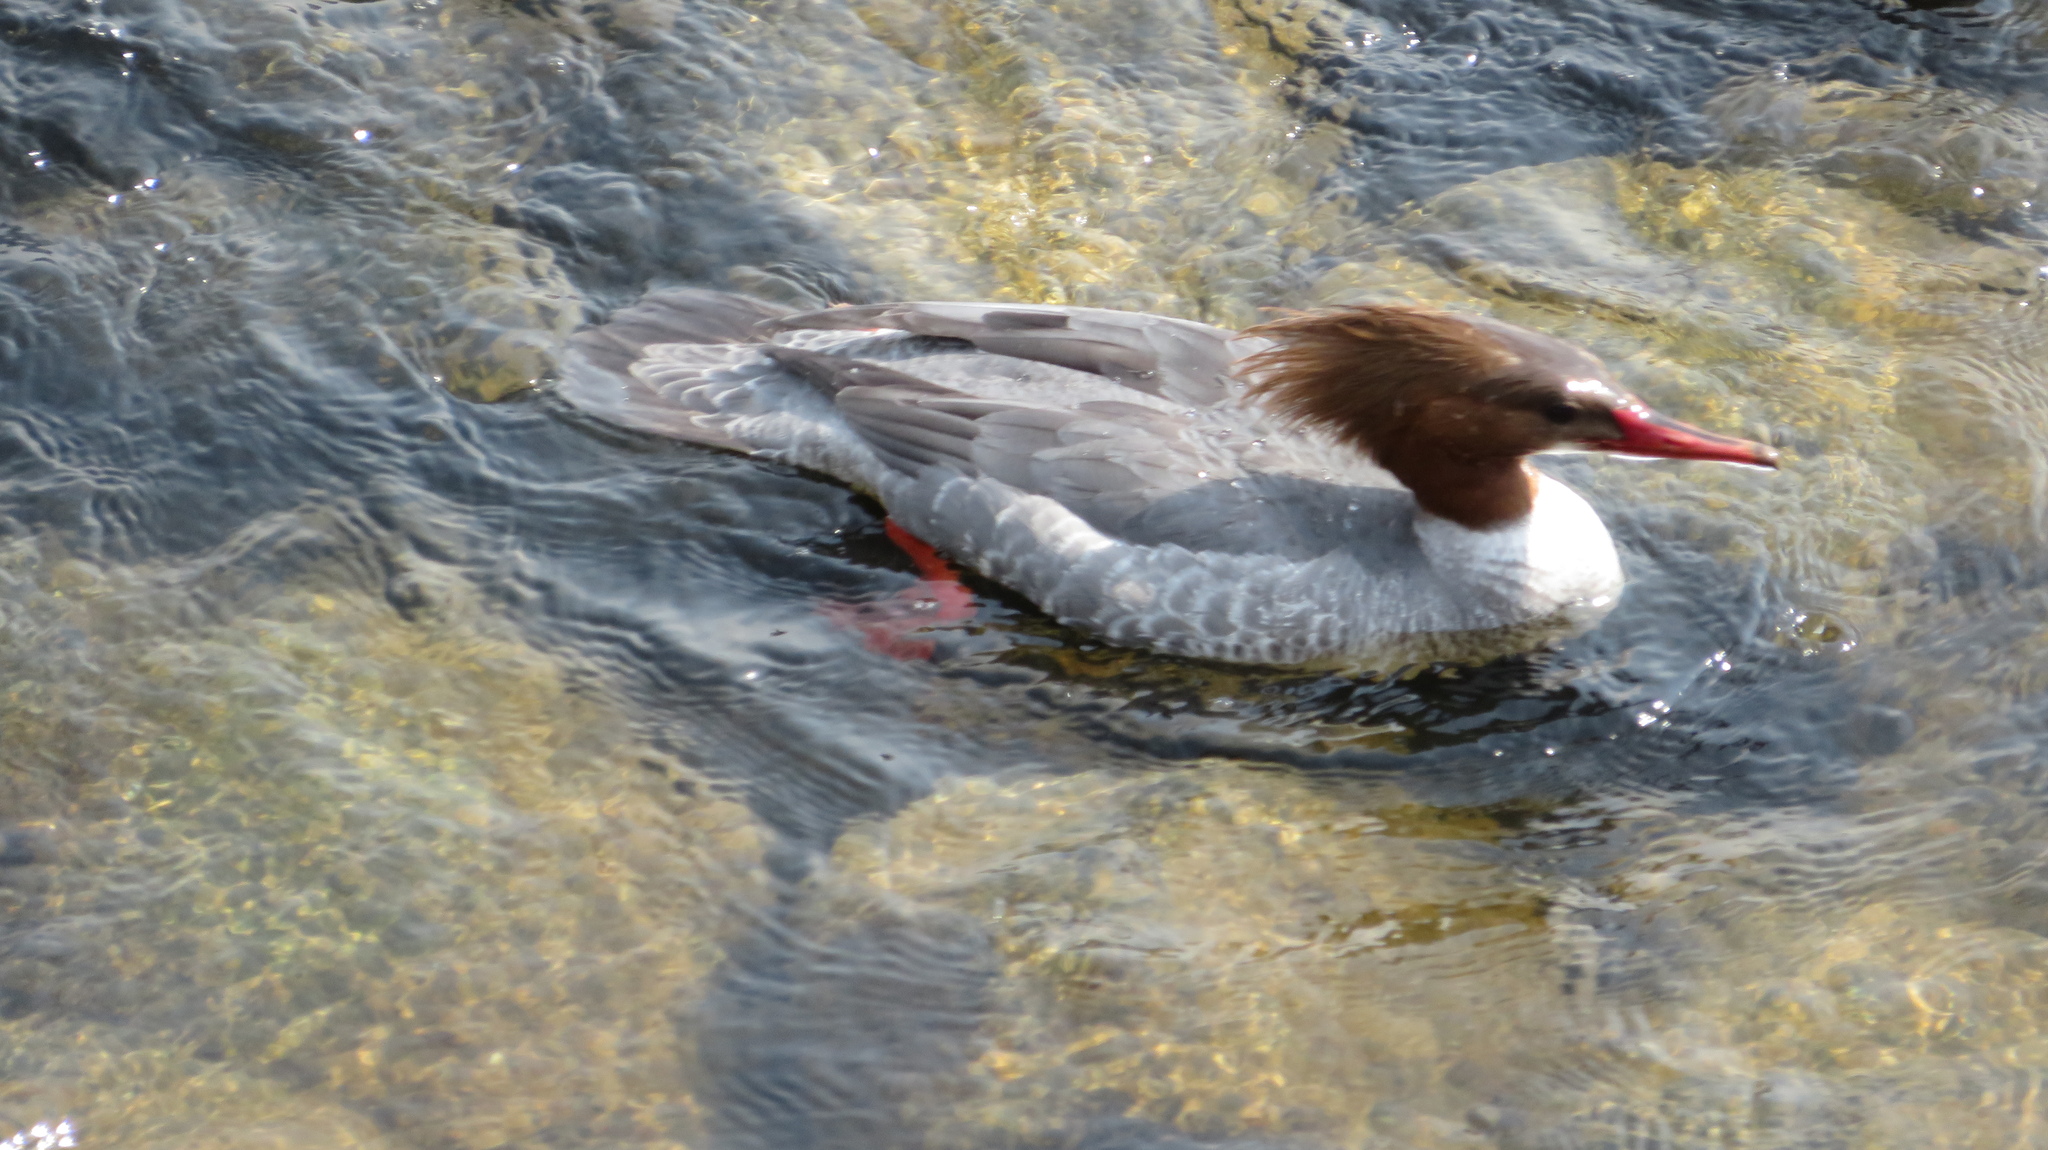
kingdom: Animalia
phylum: Chordata
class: Aves
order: Anseriformes
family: Anatidae
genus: Mergus
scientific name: Mergus merganser
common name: Common merganser
